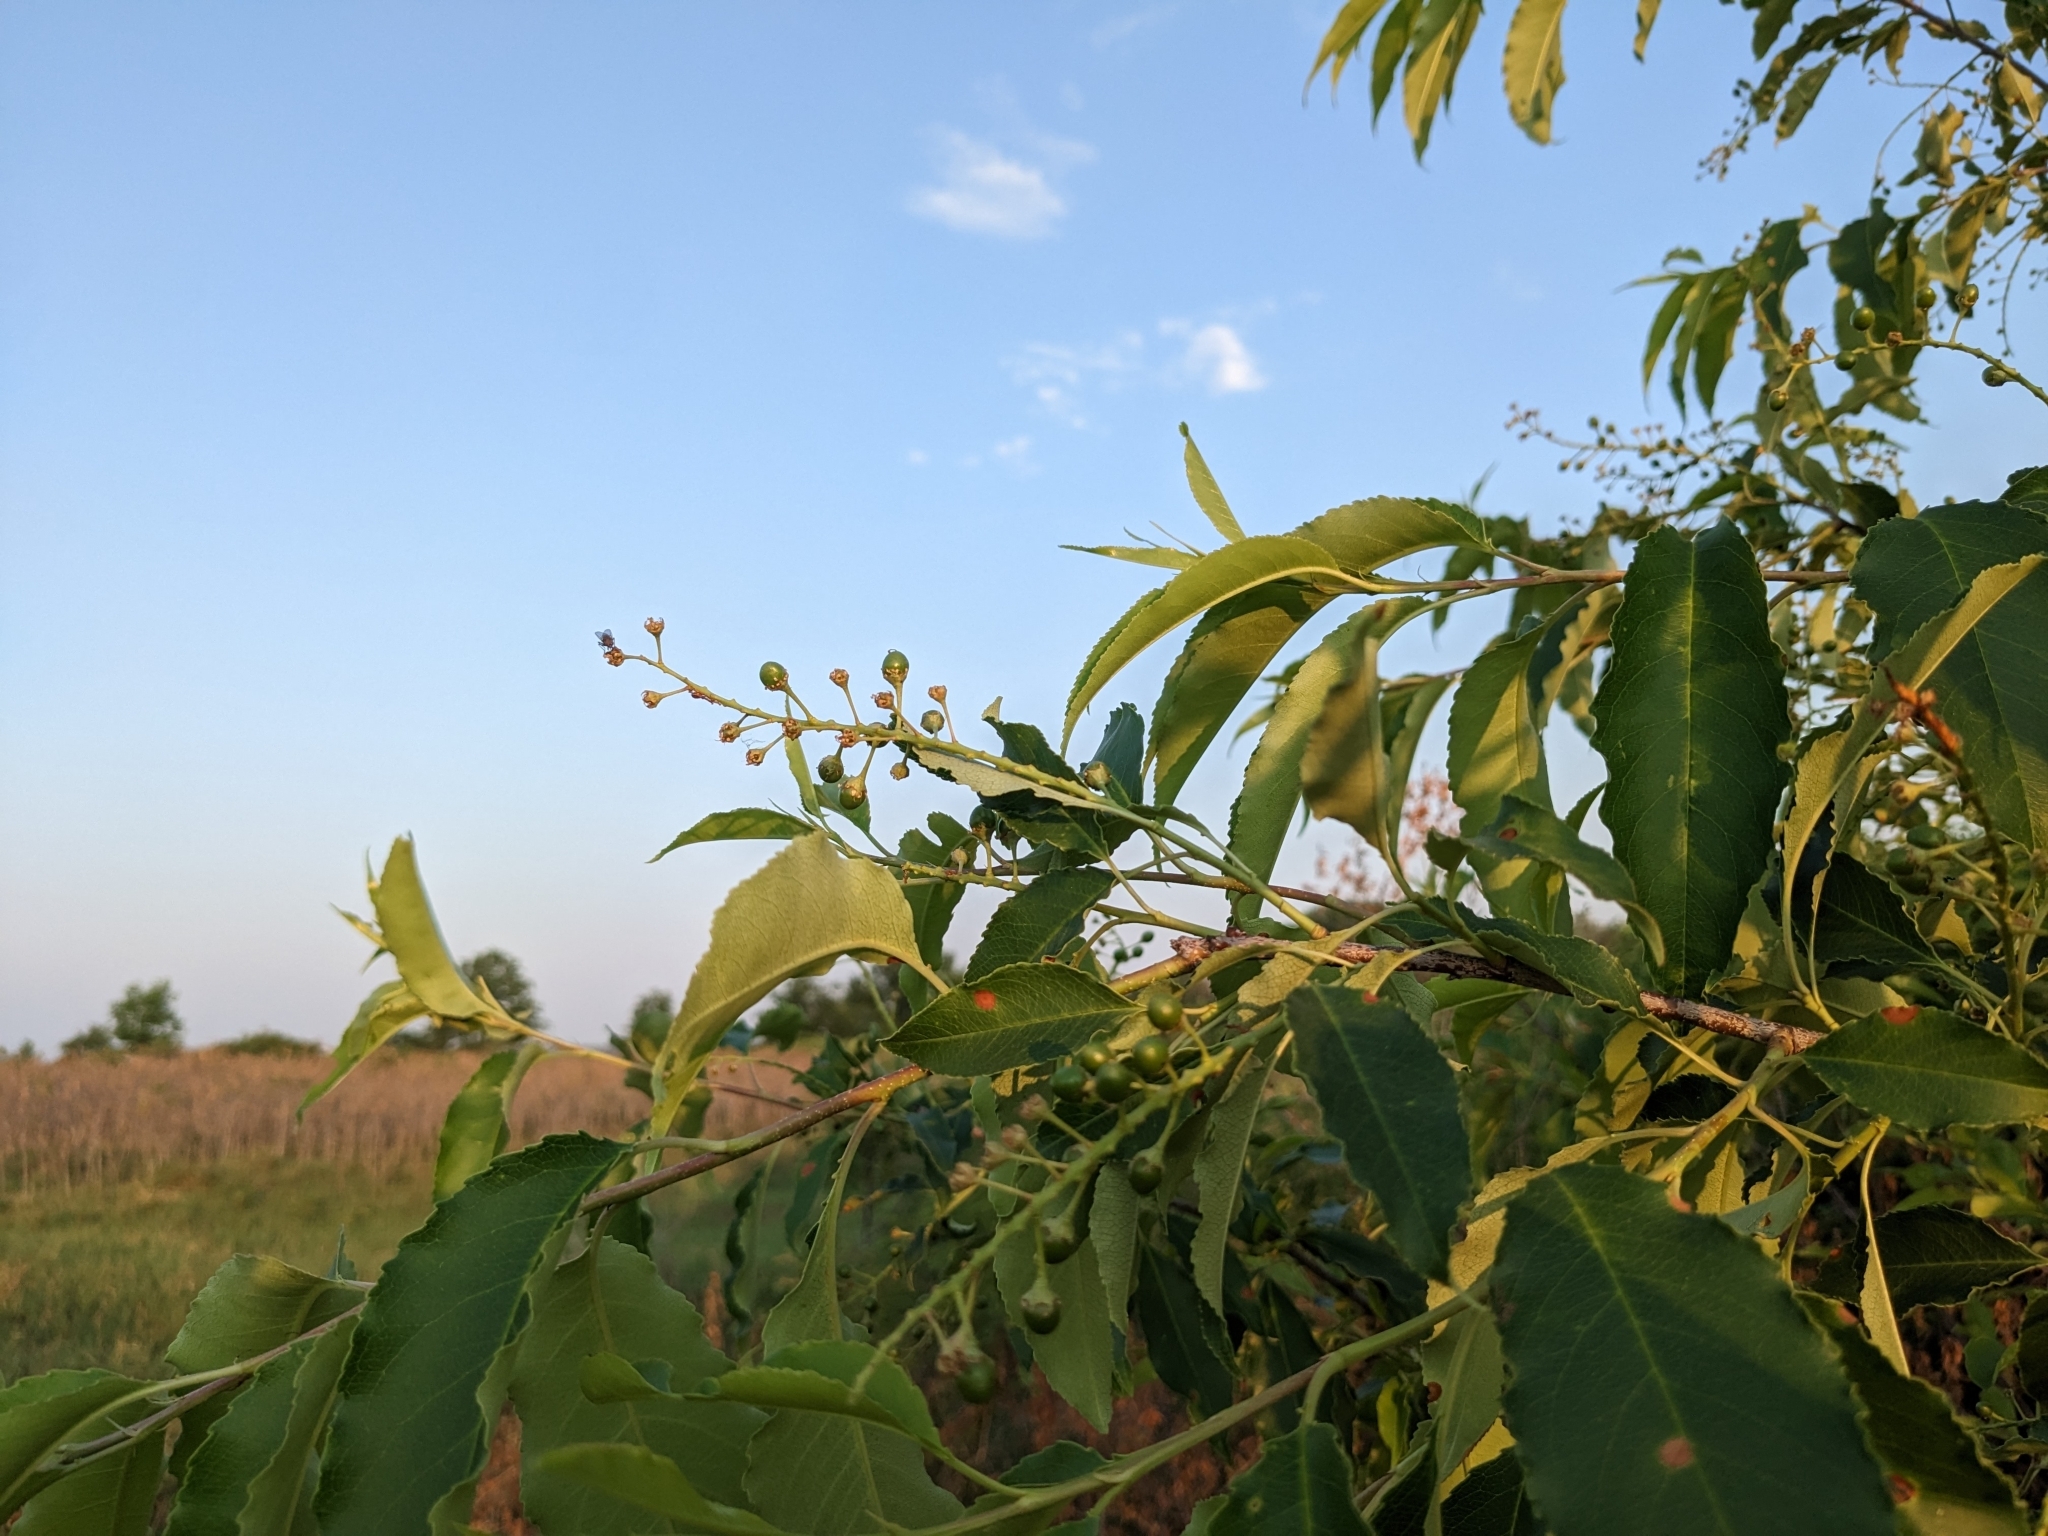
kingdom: Plantae
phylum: Tracheophyta
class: Magnoliopsida
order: Rosales
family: Rosaceae
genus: Prunus
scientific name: Prunus virginiana
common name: Chokecherry
